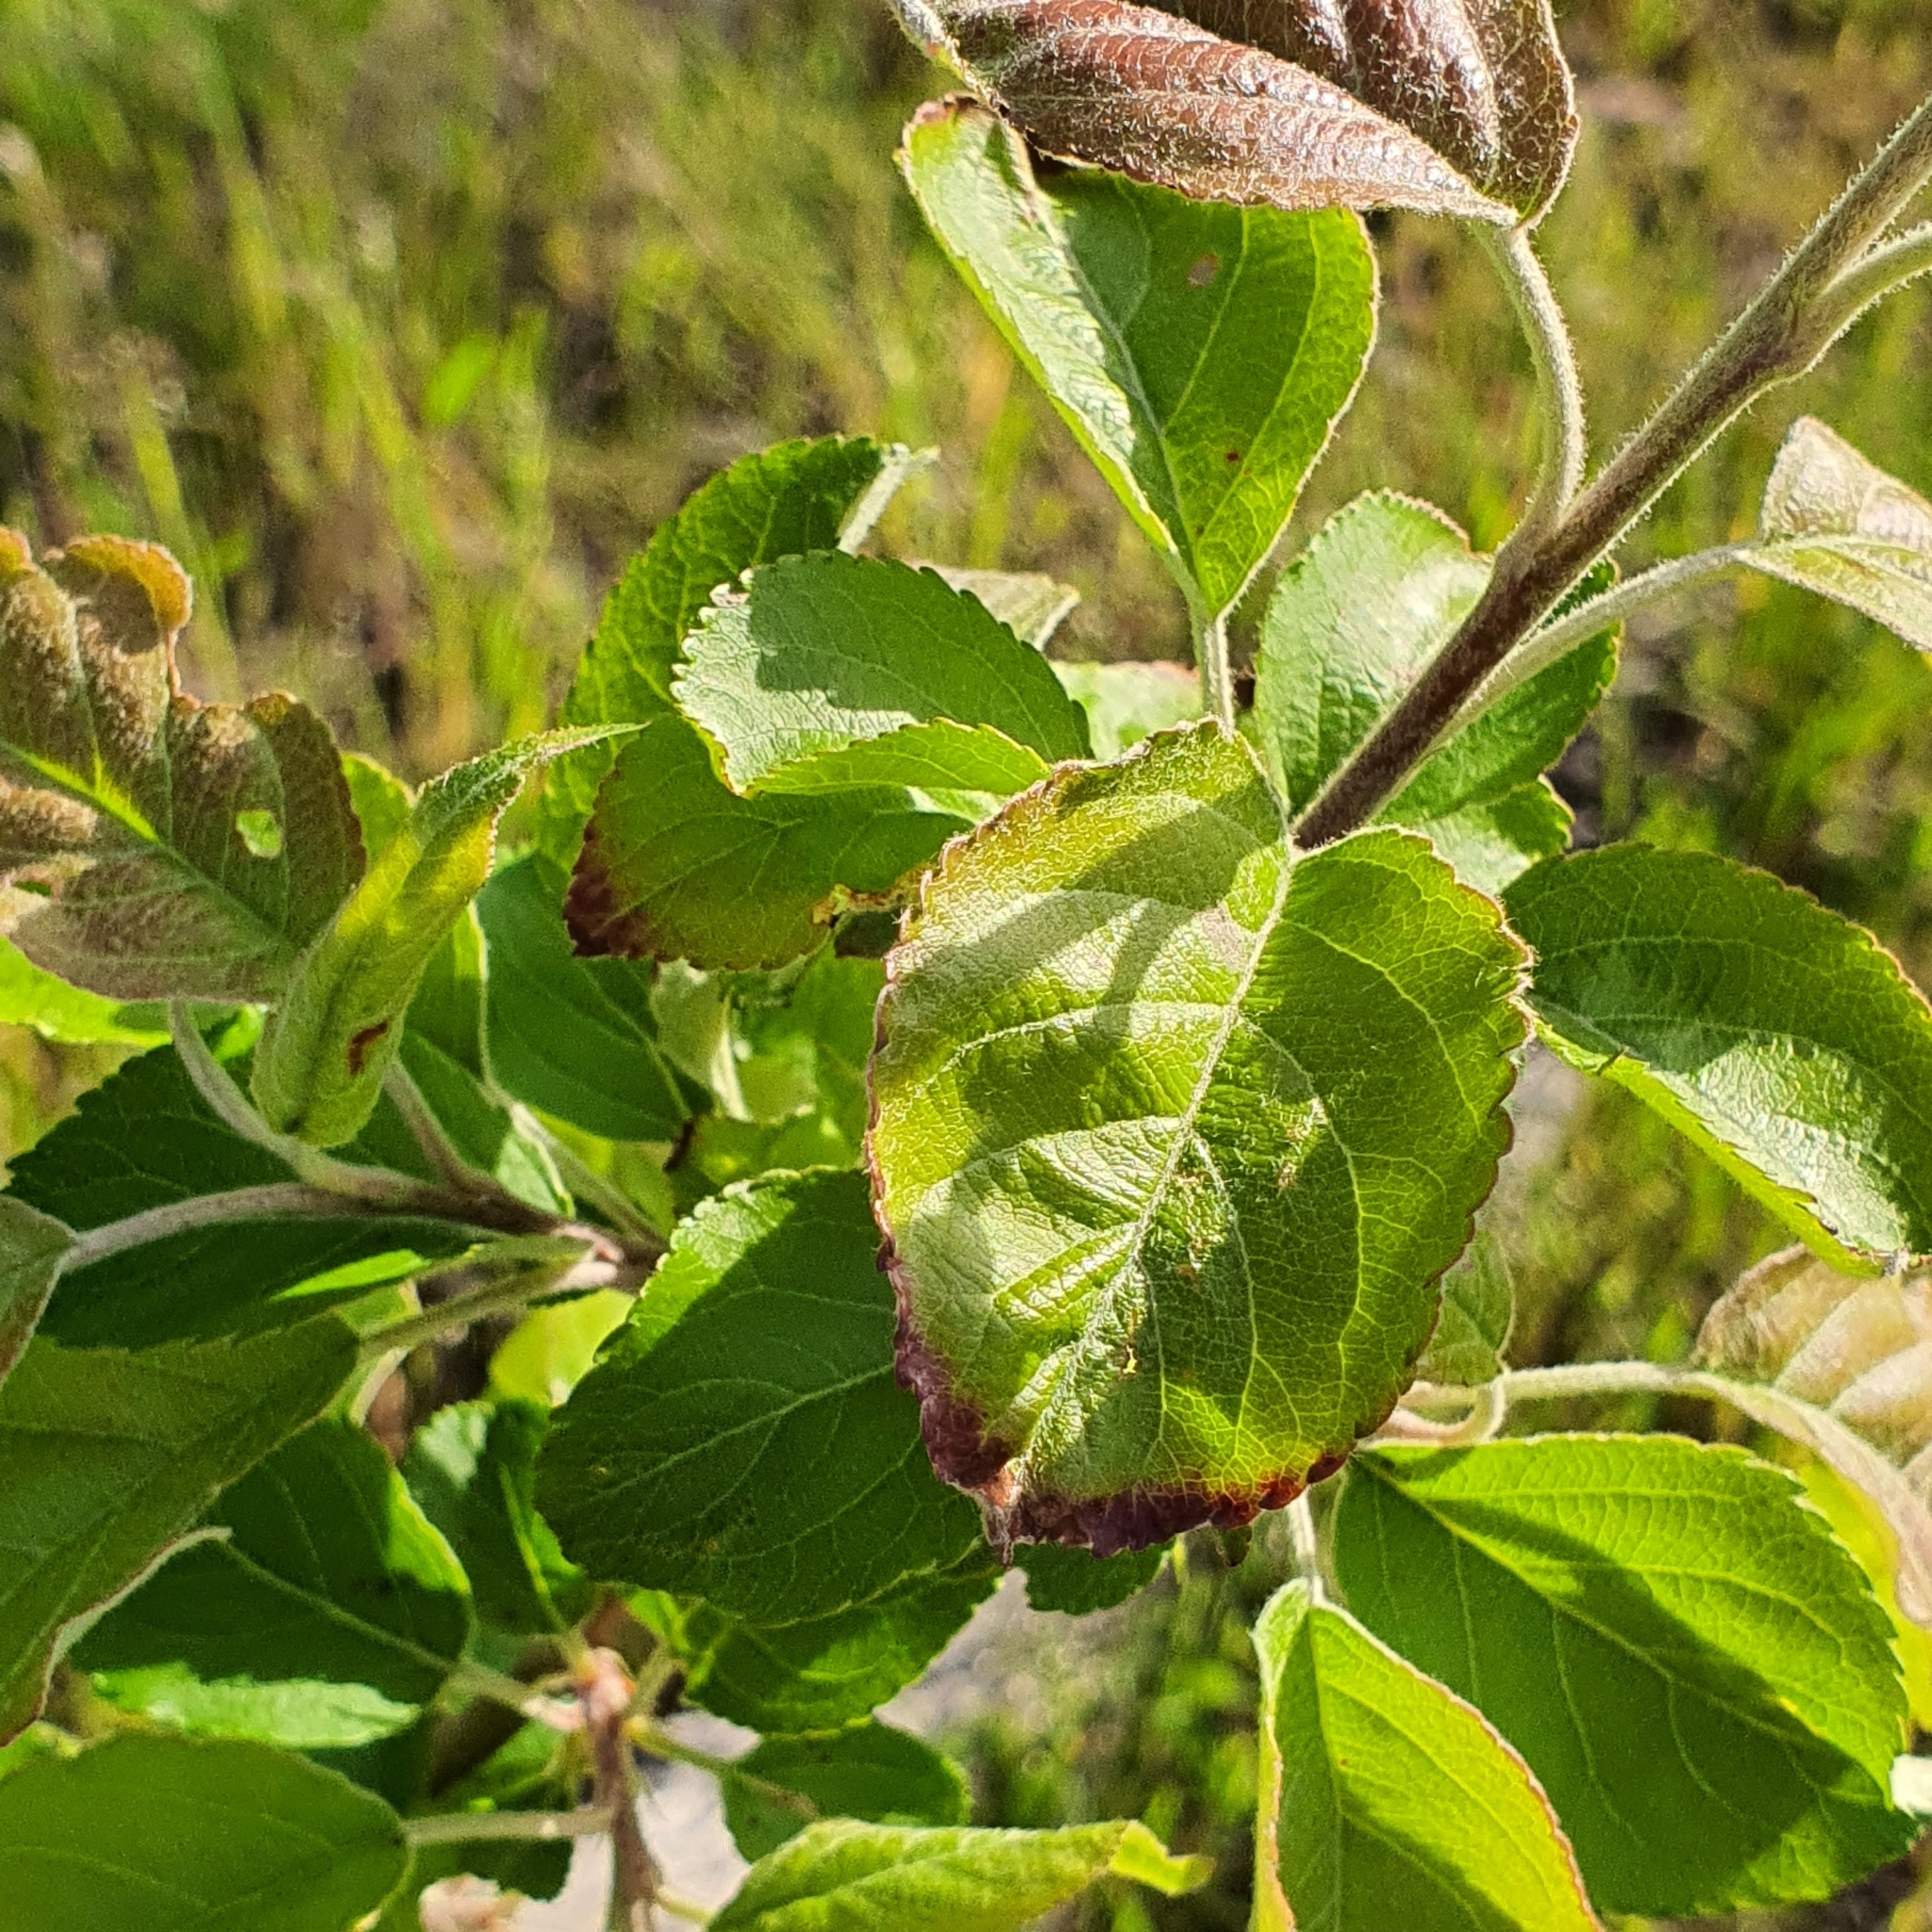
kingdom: Plantae
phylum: Tracheophyta
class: Magnoliopsida
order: Rosales
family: Rosaceae
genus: Malus
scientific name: Malus domestica
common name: Apple
